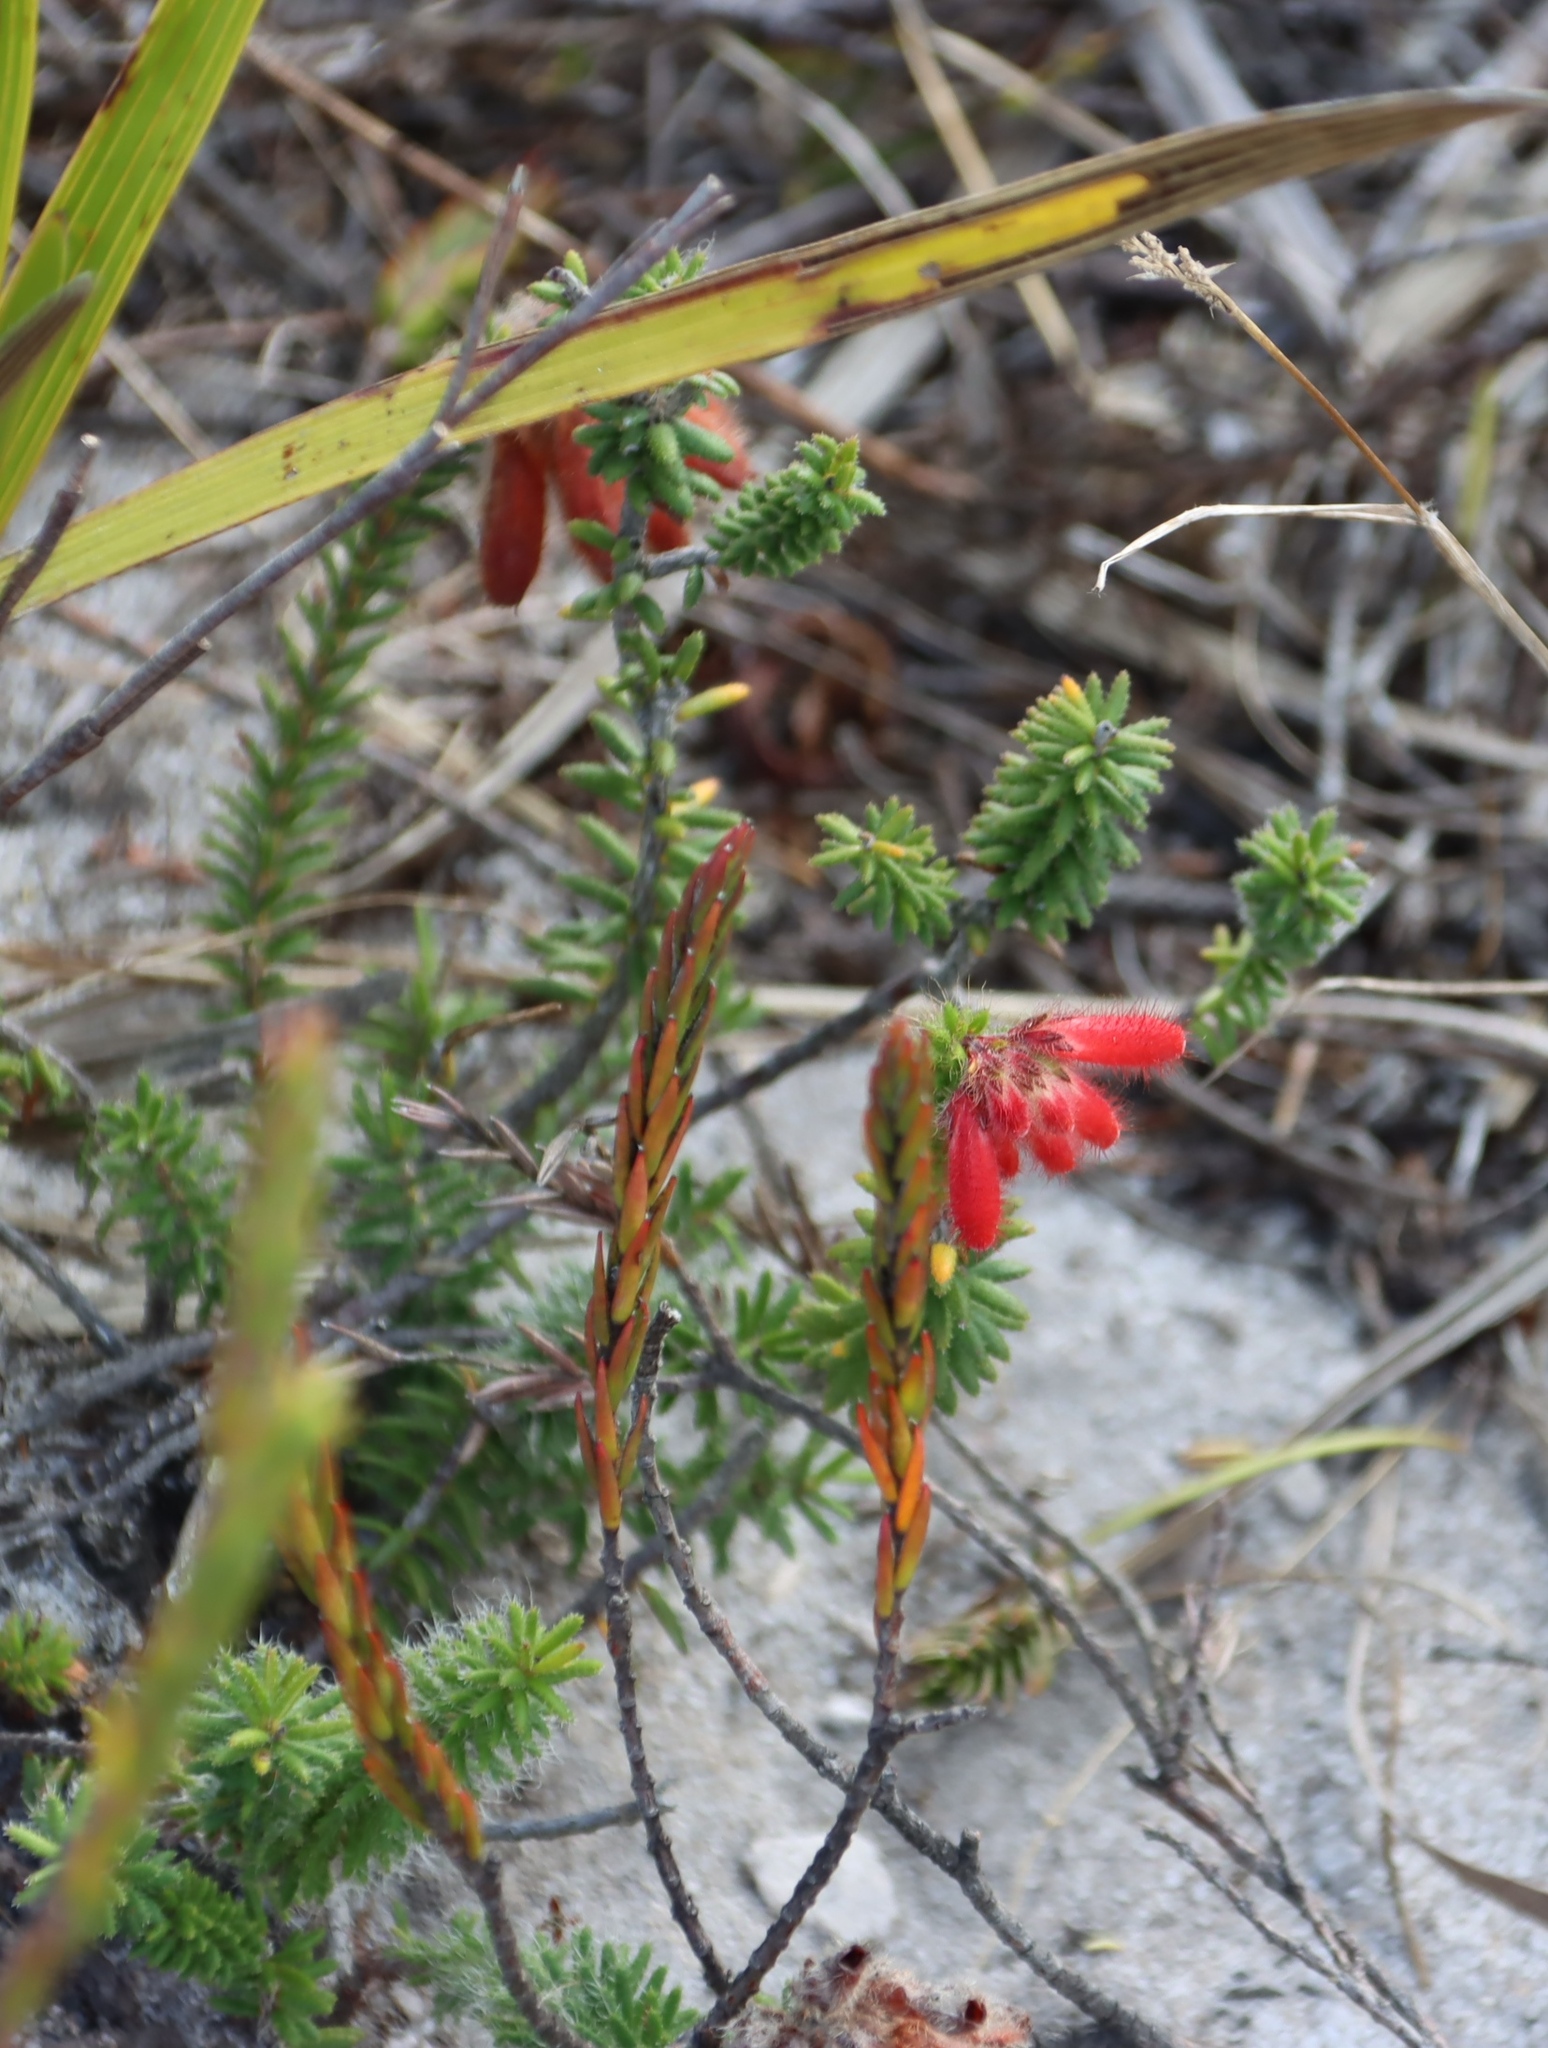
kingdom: Plantae
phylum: Tracheophyta
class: Magnoliopsida
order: Ericales
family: Ericaceae
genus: Erica
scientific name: Erica cerinthoides
